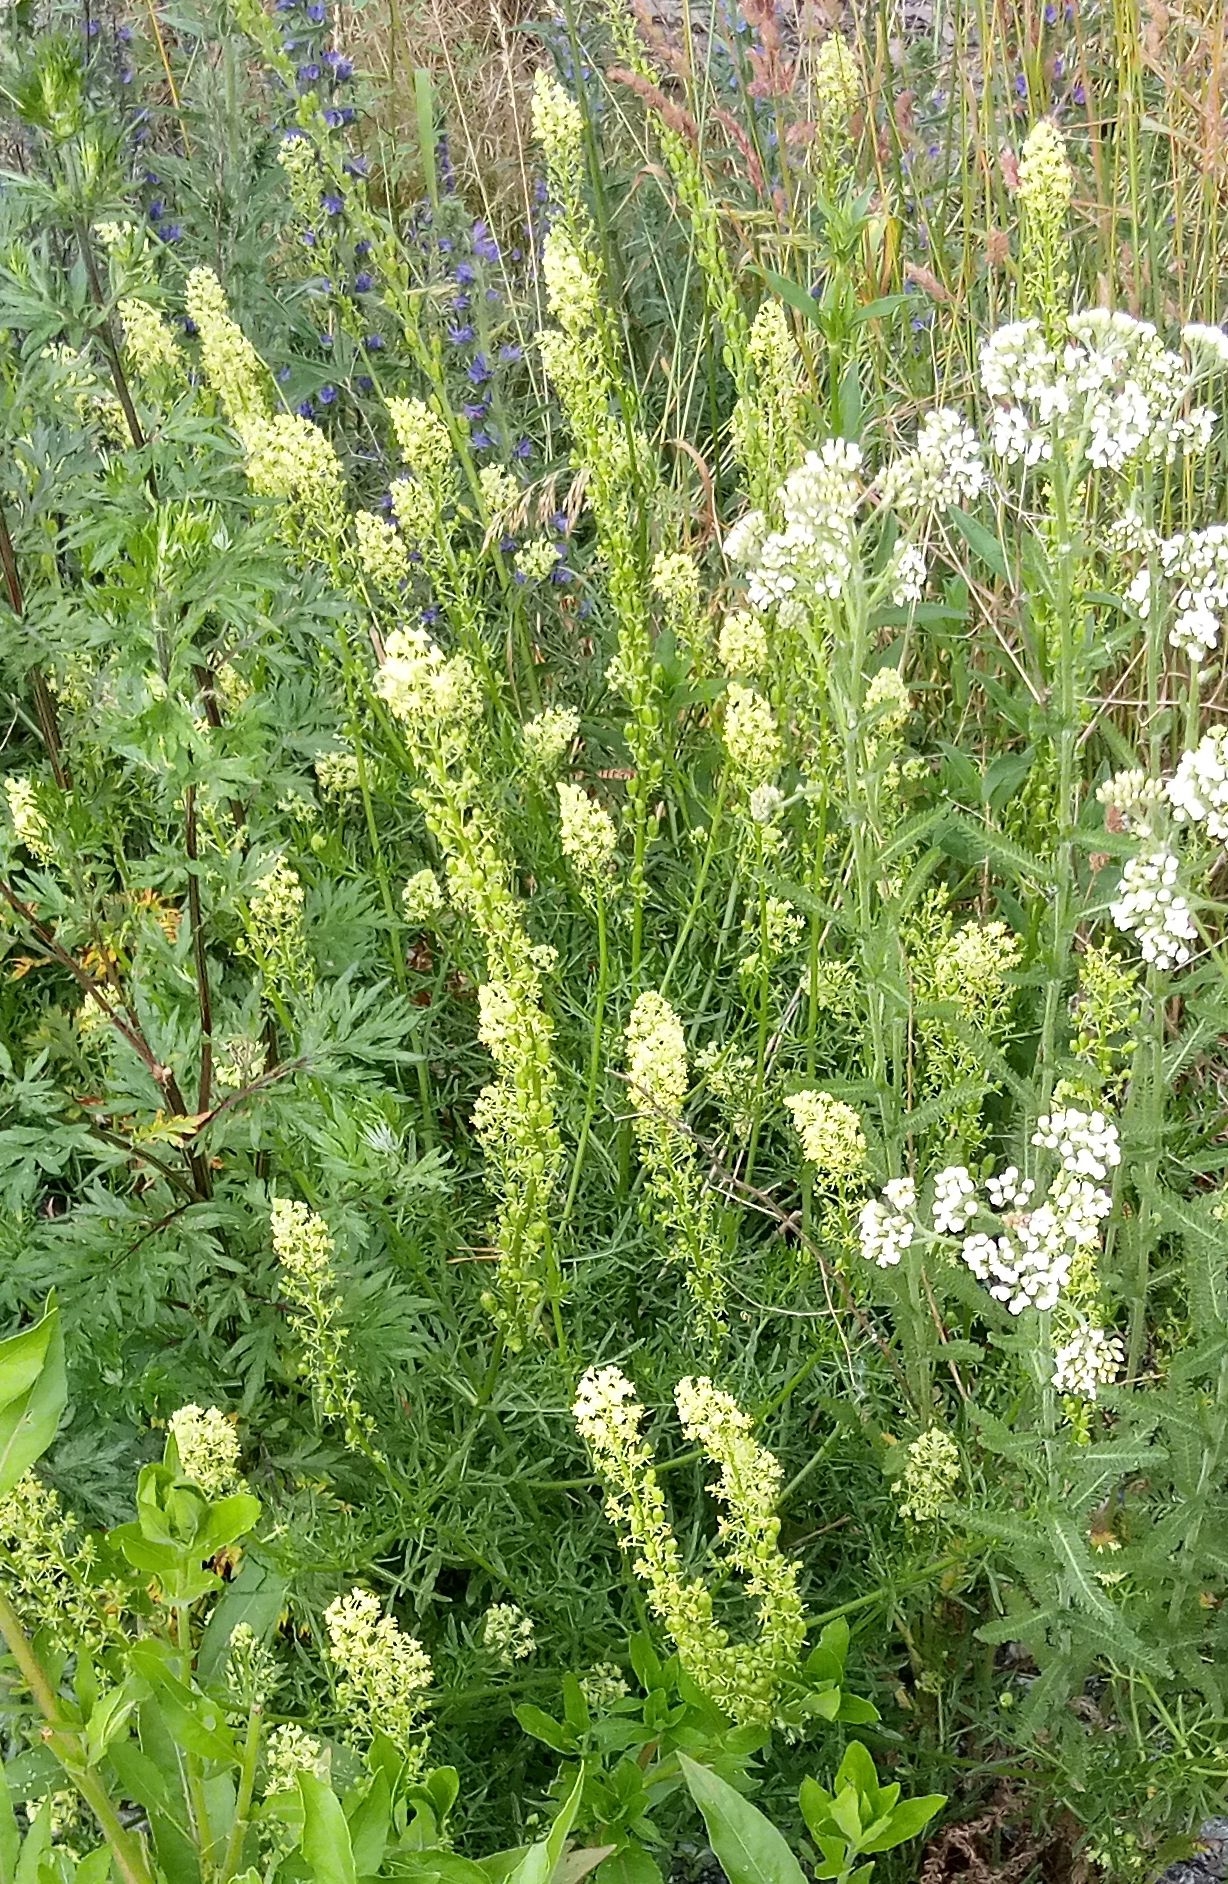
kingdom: Plantae
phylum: Tracheophyta
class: Magnoliopsida
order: Brassicales
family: Resedaceae
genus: Reseda
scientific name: Reseda lutea
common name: Wild mignonette
